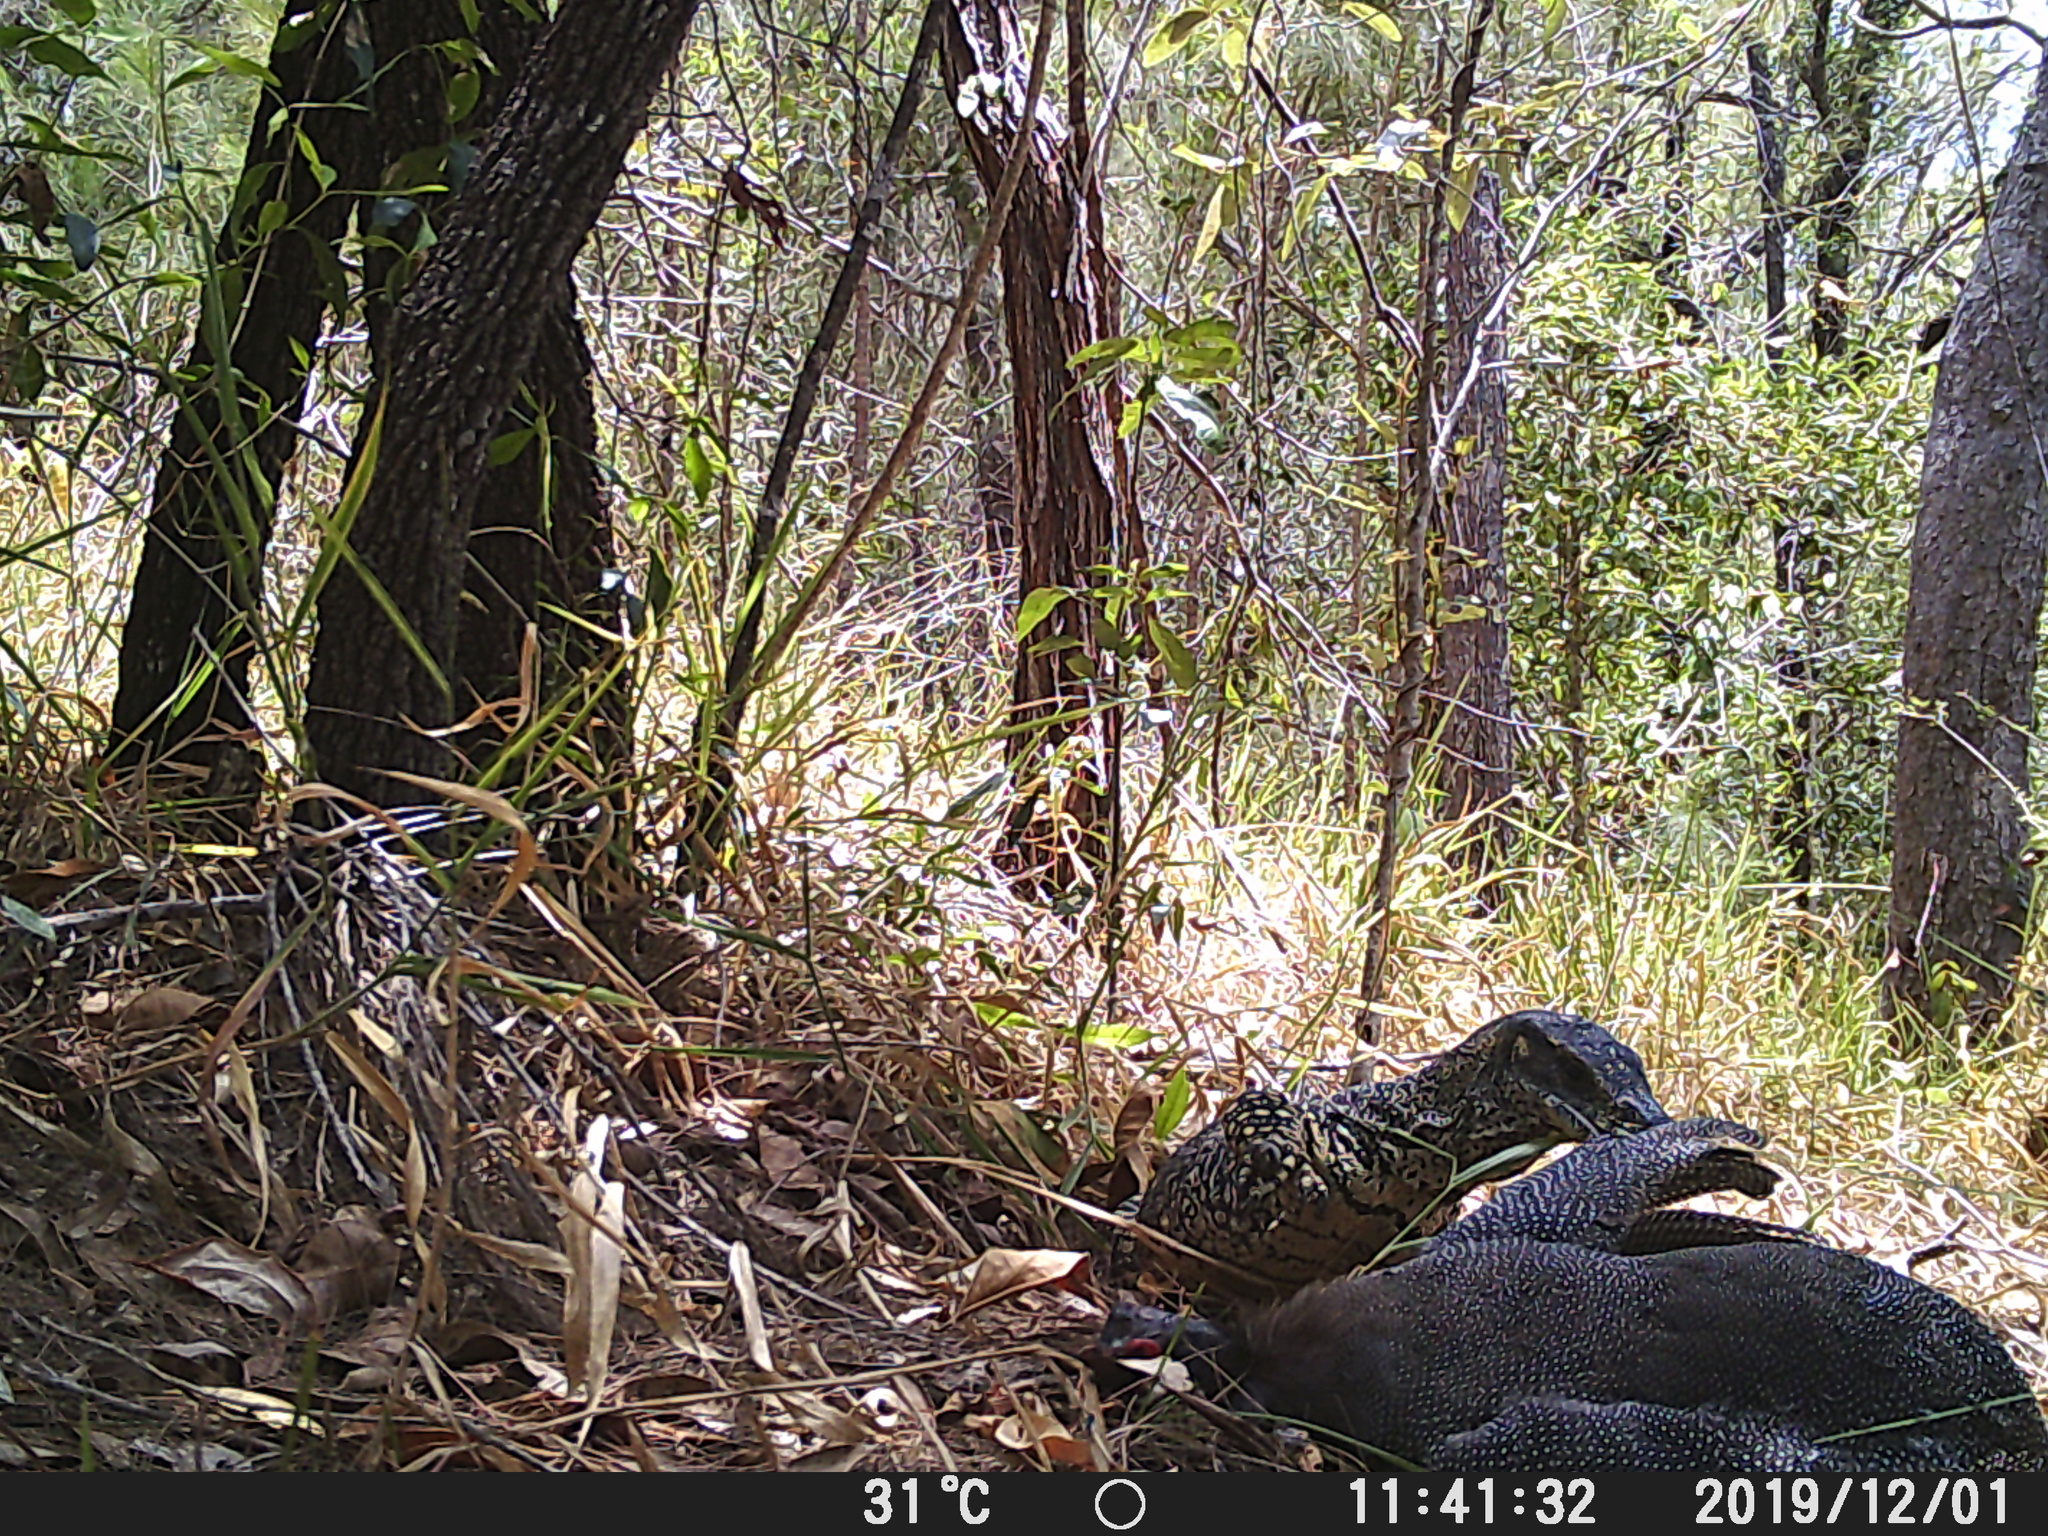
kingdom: Animalia
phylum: Chordata
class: Squamata
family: Varanidae
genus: Varanus
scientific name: Varanus varius
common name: Lace monitor
